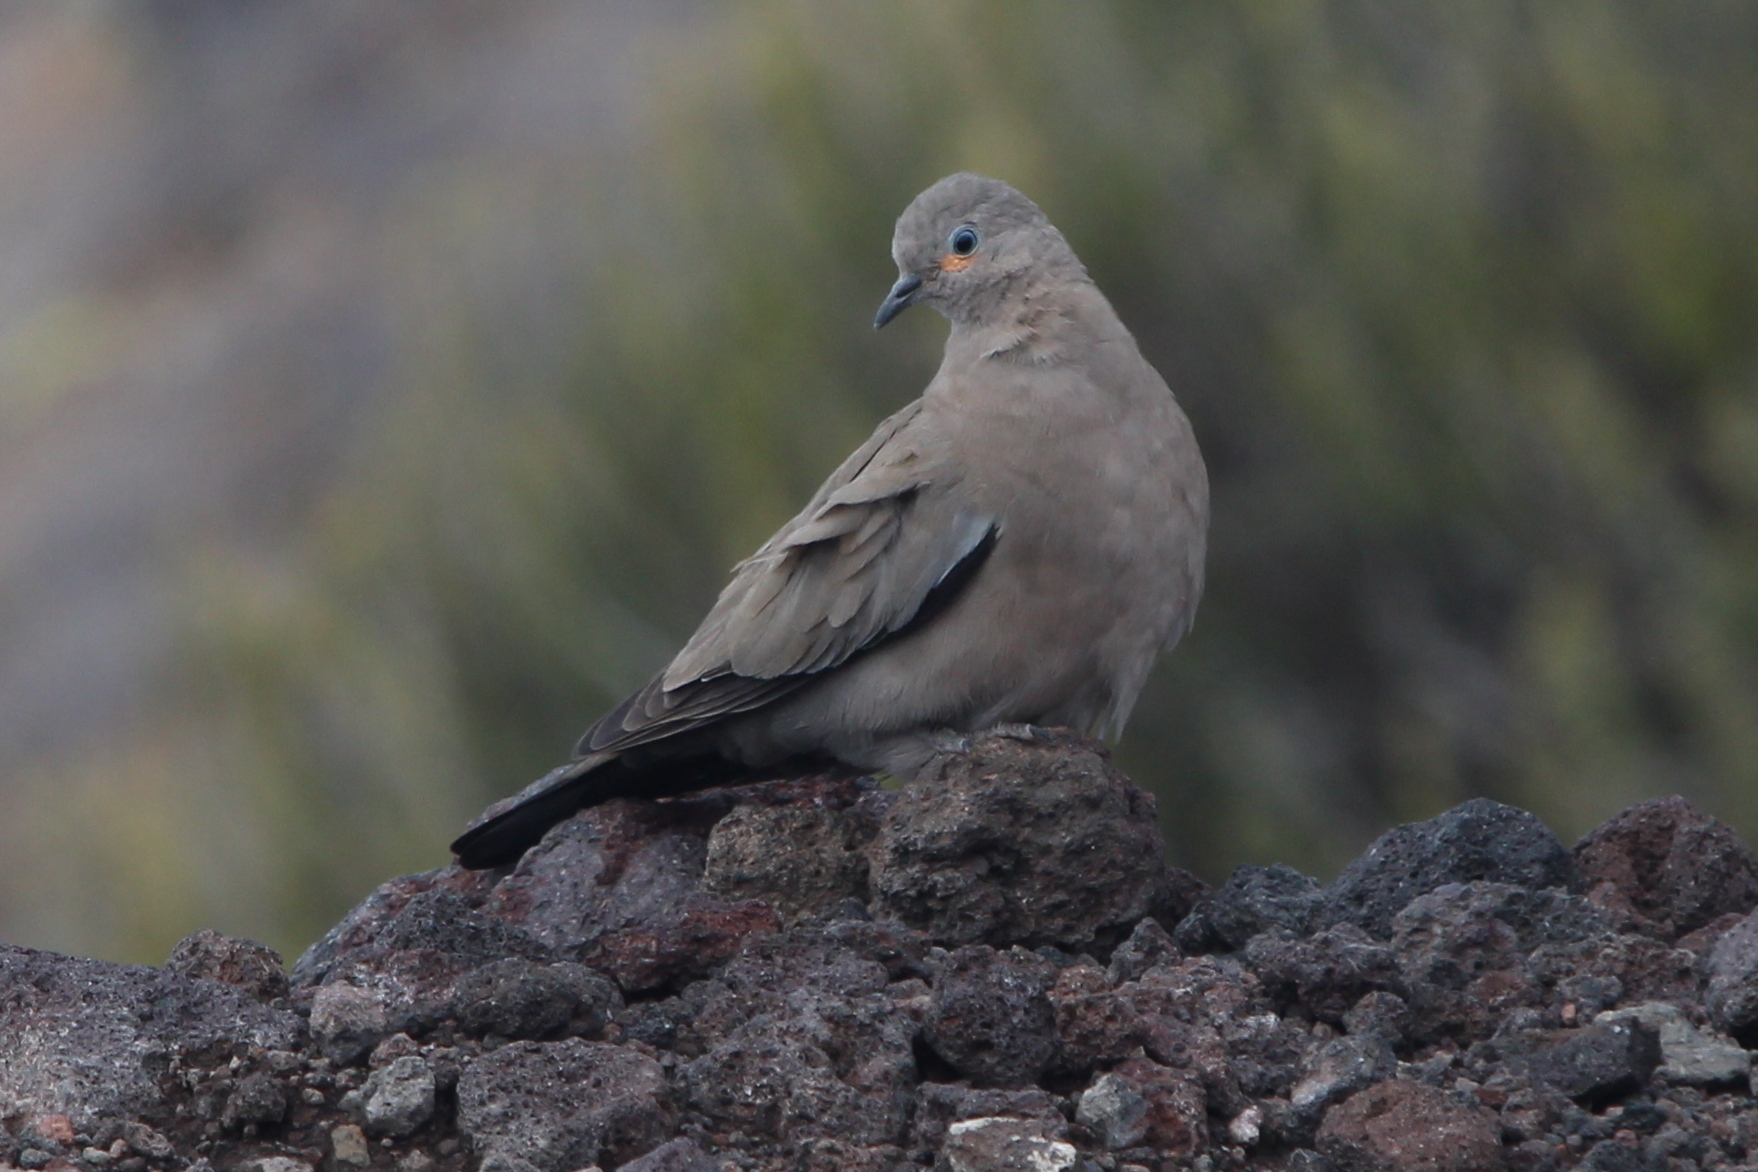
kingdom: Animalia
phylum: Chordata
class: Aves
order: Columbiformes
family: Columbidae
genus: Metriopelia
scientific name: Metriopelia melanoptera
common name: Black-winged ground dove
